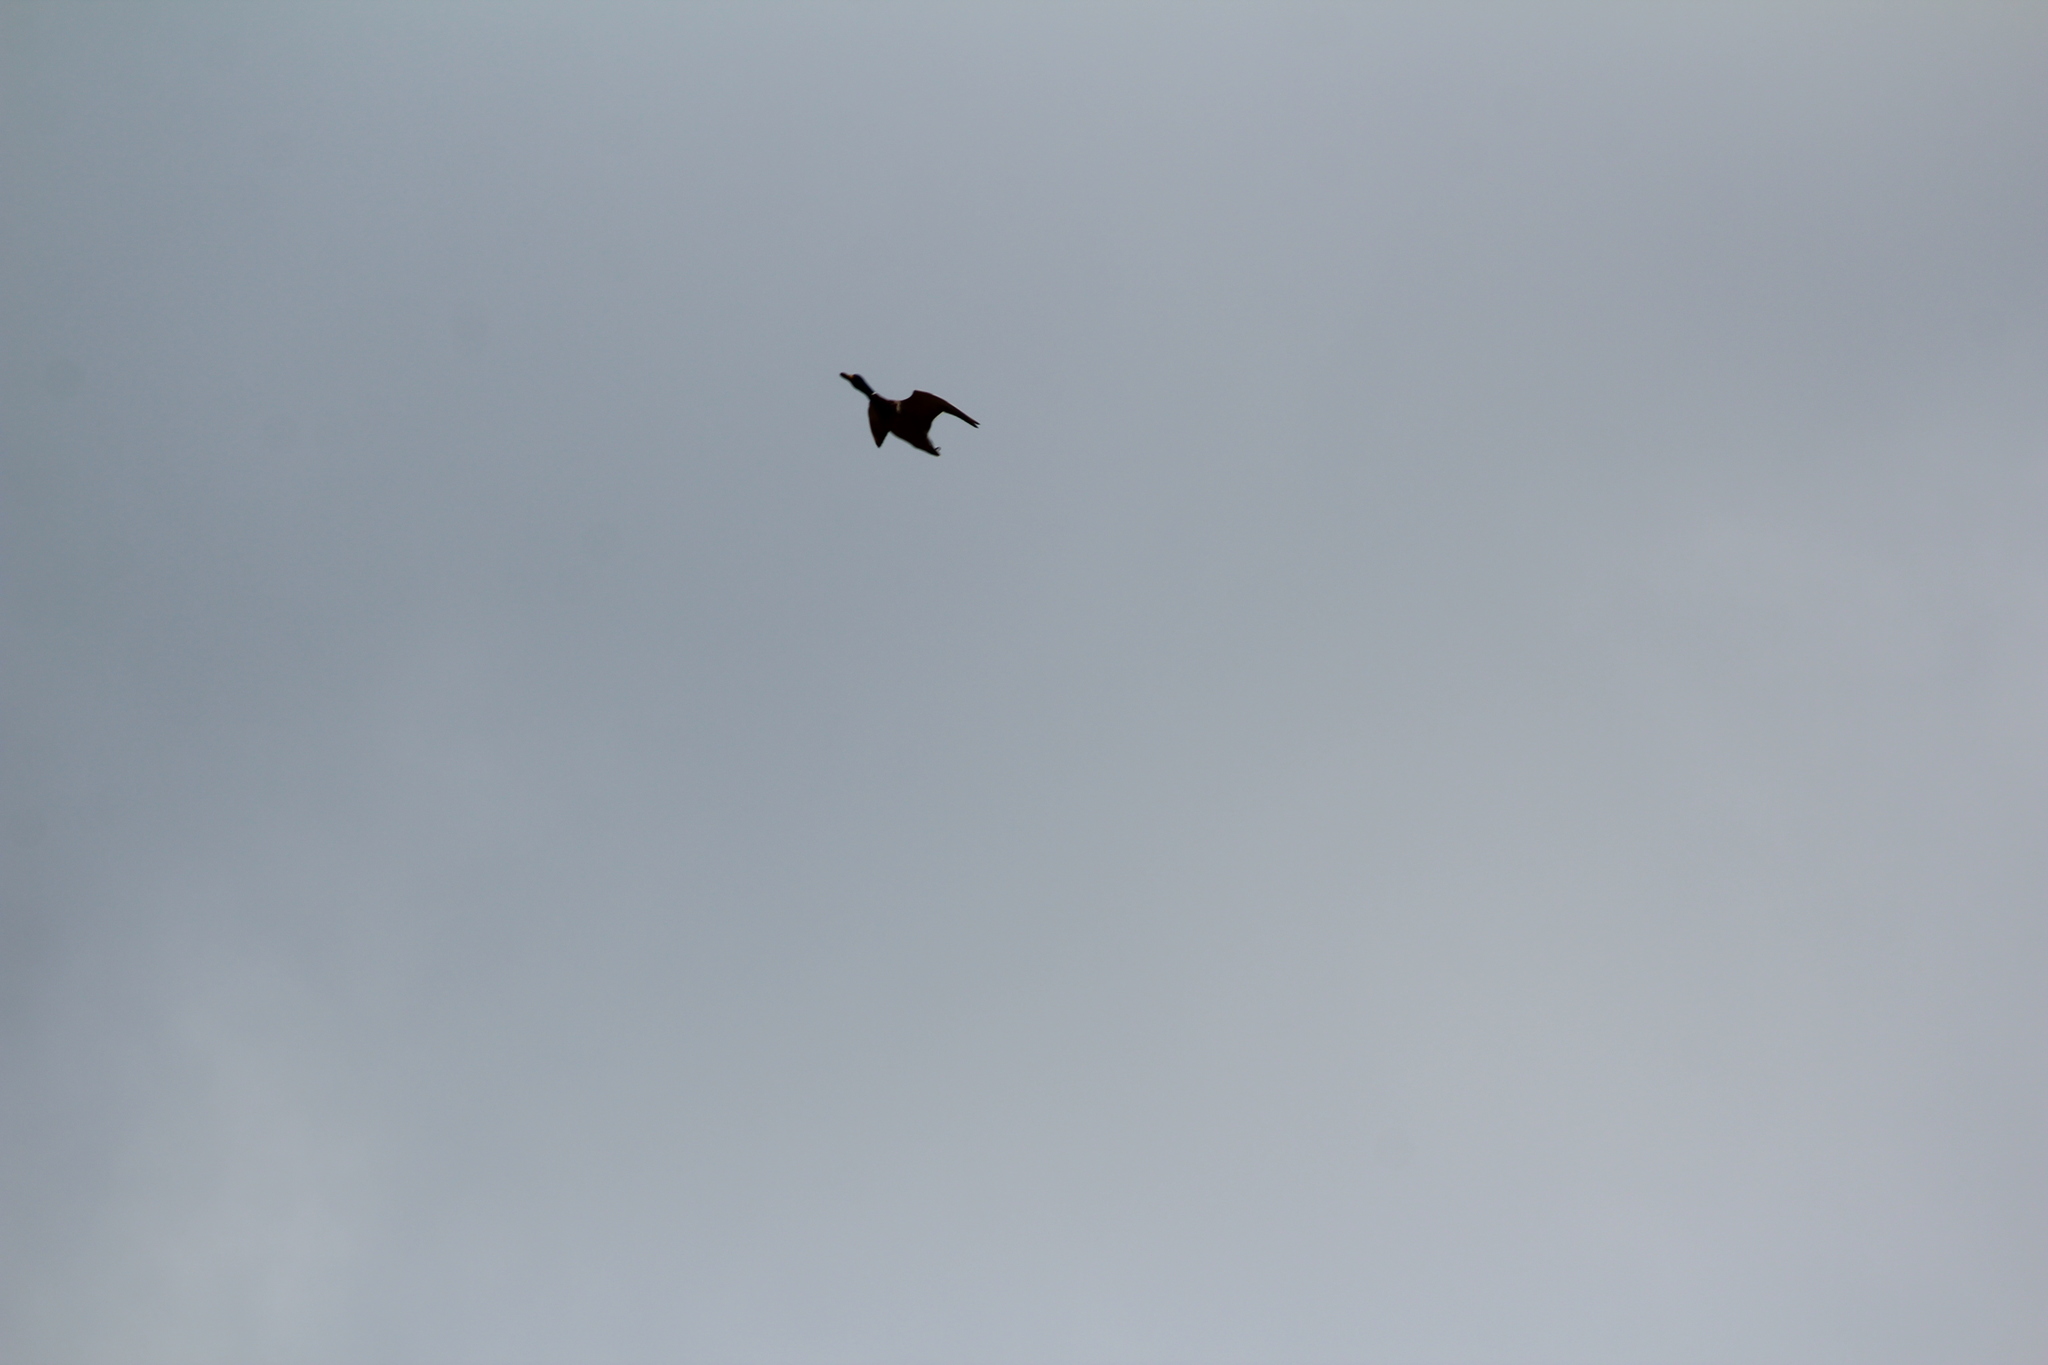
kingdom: Animalia
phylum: Chordata
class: Aves
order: Anseriformes
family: Anatidae
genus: Anas
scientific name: Anas platyrhynchos
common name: Mallard
